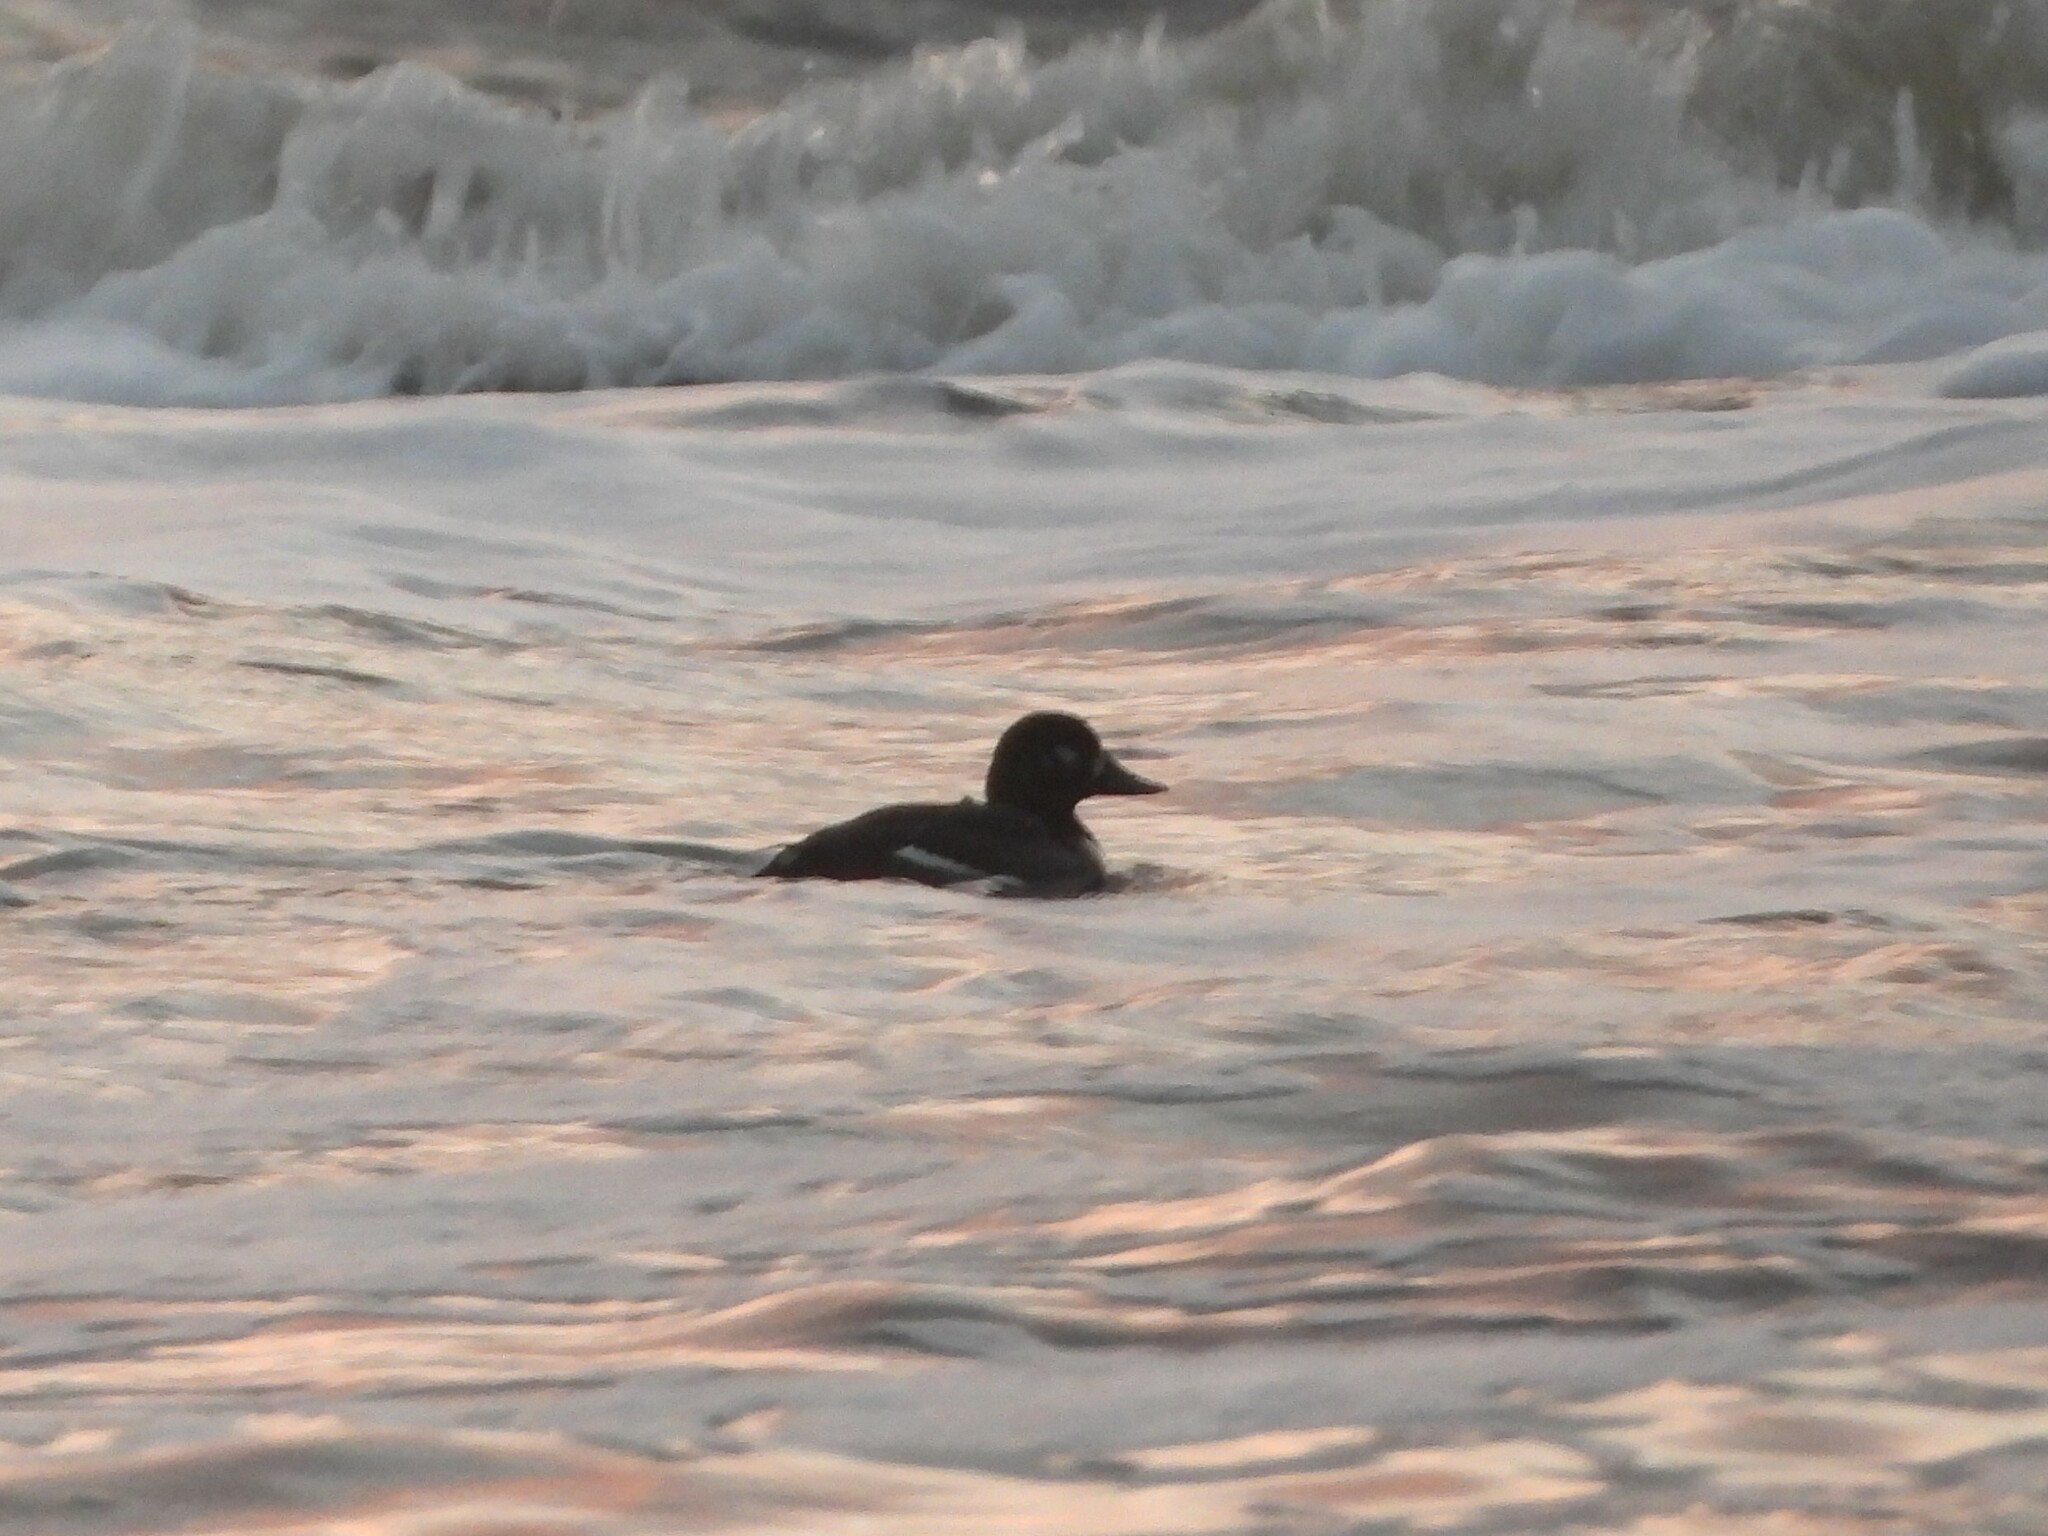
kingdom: Animalia
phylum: Chordata
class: Aves
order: Anseriformes
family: Anatidae
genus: Melanitta
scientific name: Melanitta fusca
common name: Velvet scoter
